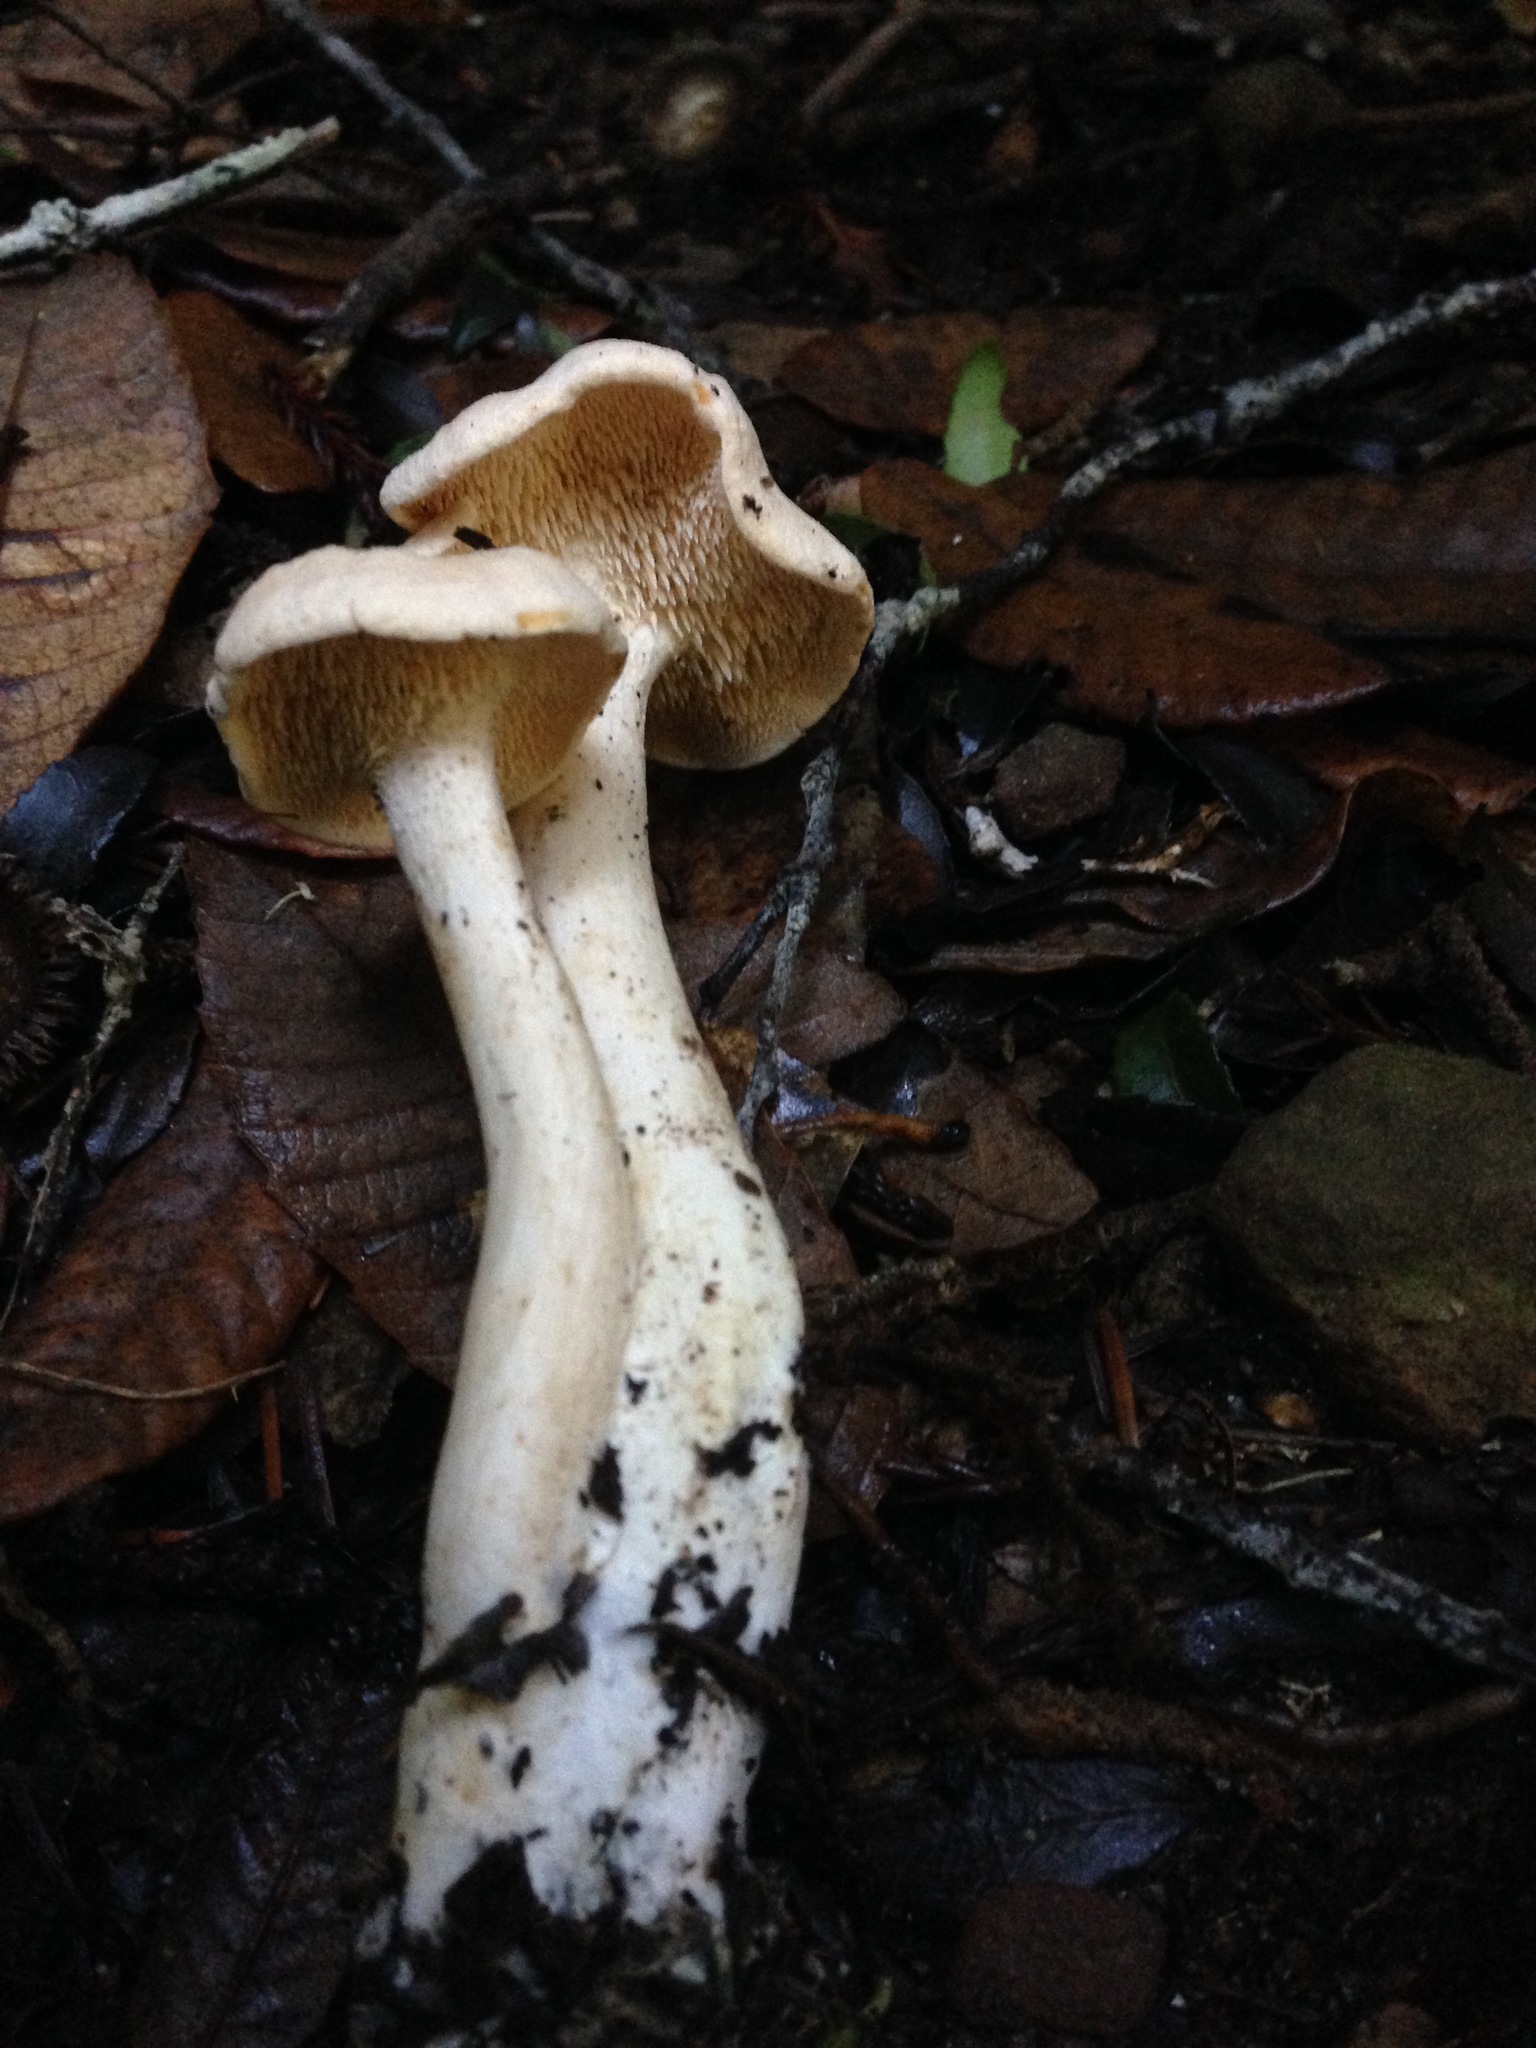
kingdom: Fungi
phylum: Basidiomycota
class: Agaricomycetes
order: Cantharellales
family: Hydnaceae
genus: Hydnum
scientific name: Hydnum umbilicatum
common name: Umbilicate hedgehog
